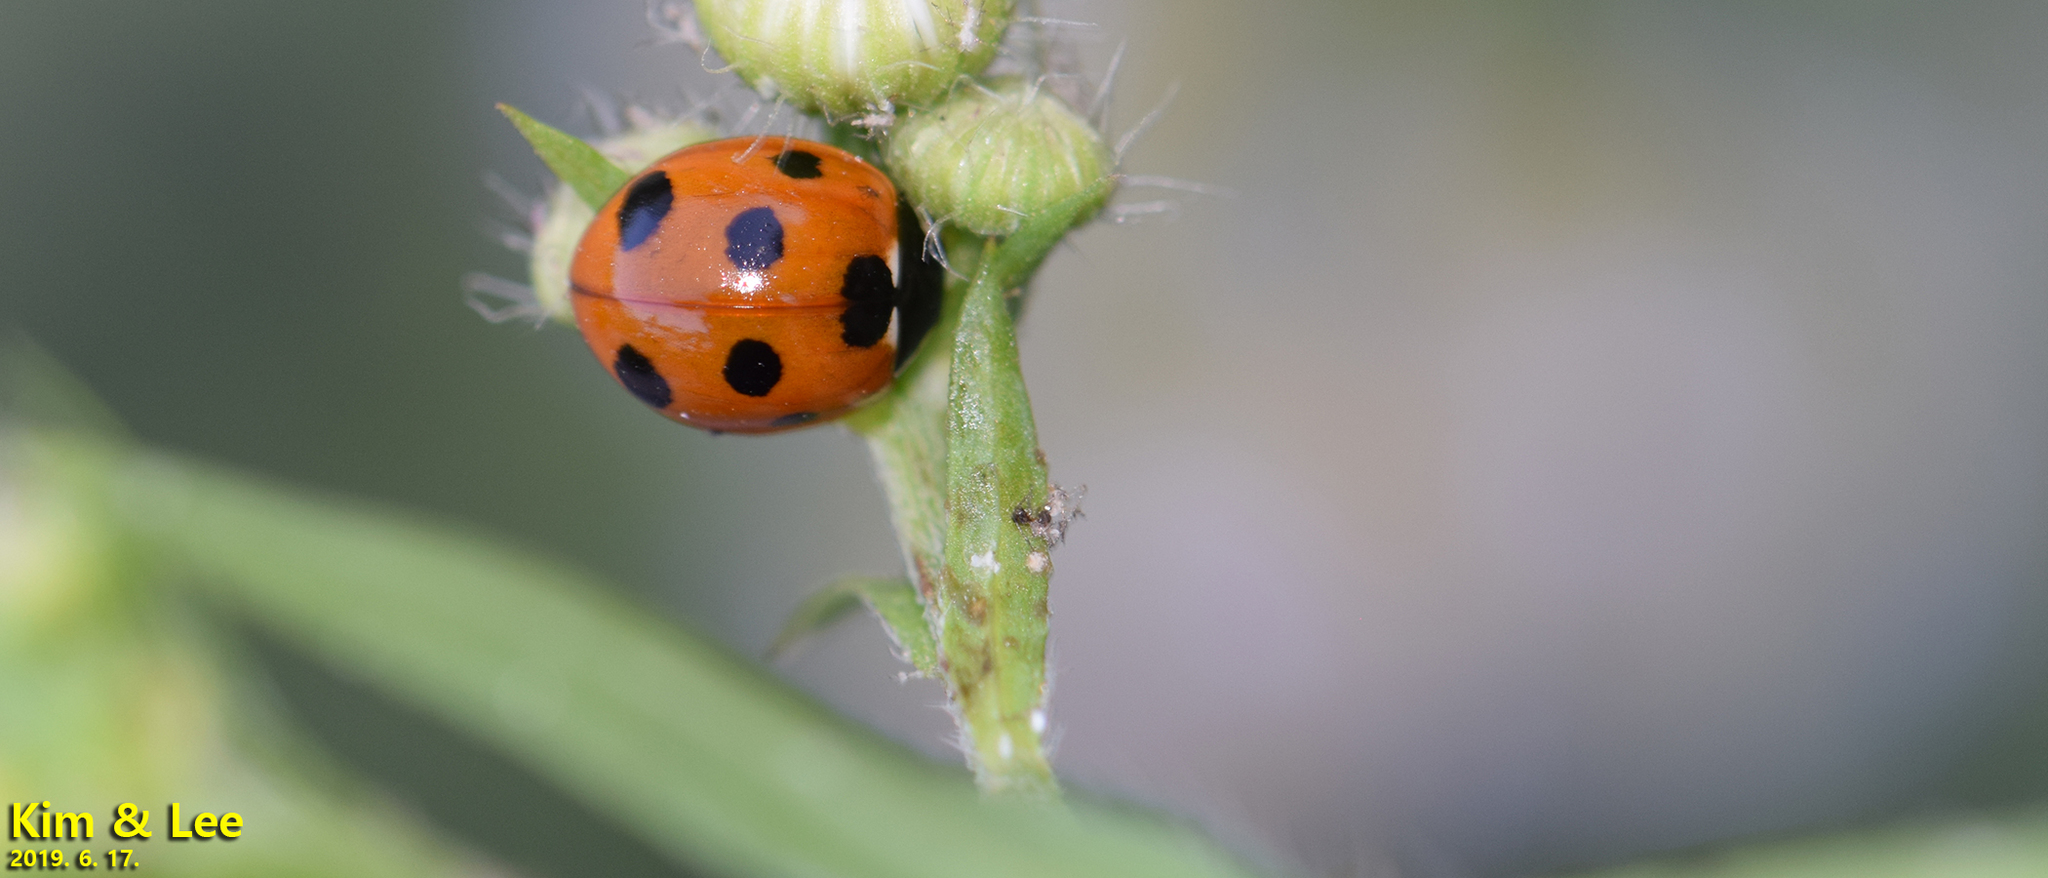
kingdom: Animalia
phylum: Arthropoda
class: Insecta
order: Coleoptera
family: Coccinellidae
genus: Coccinella
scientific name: Coccinella septempunctata
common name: Sevenspotted lady beetle
